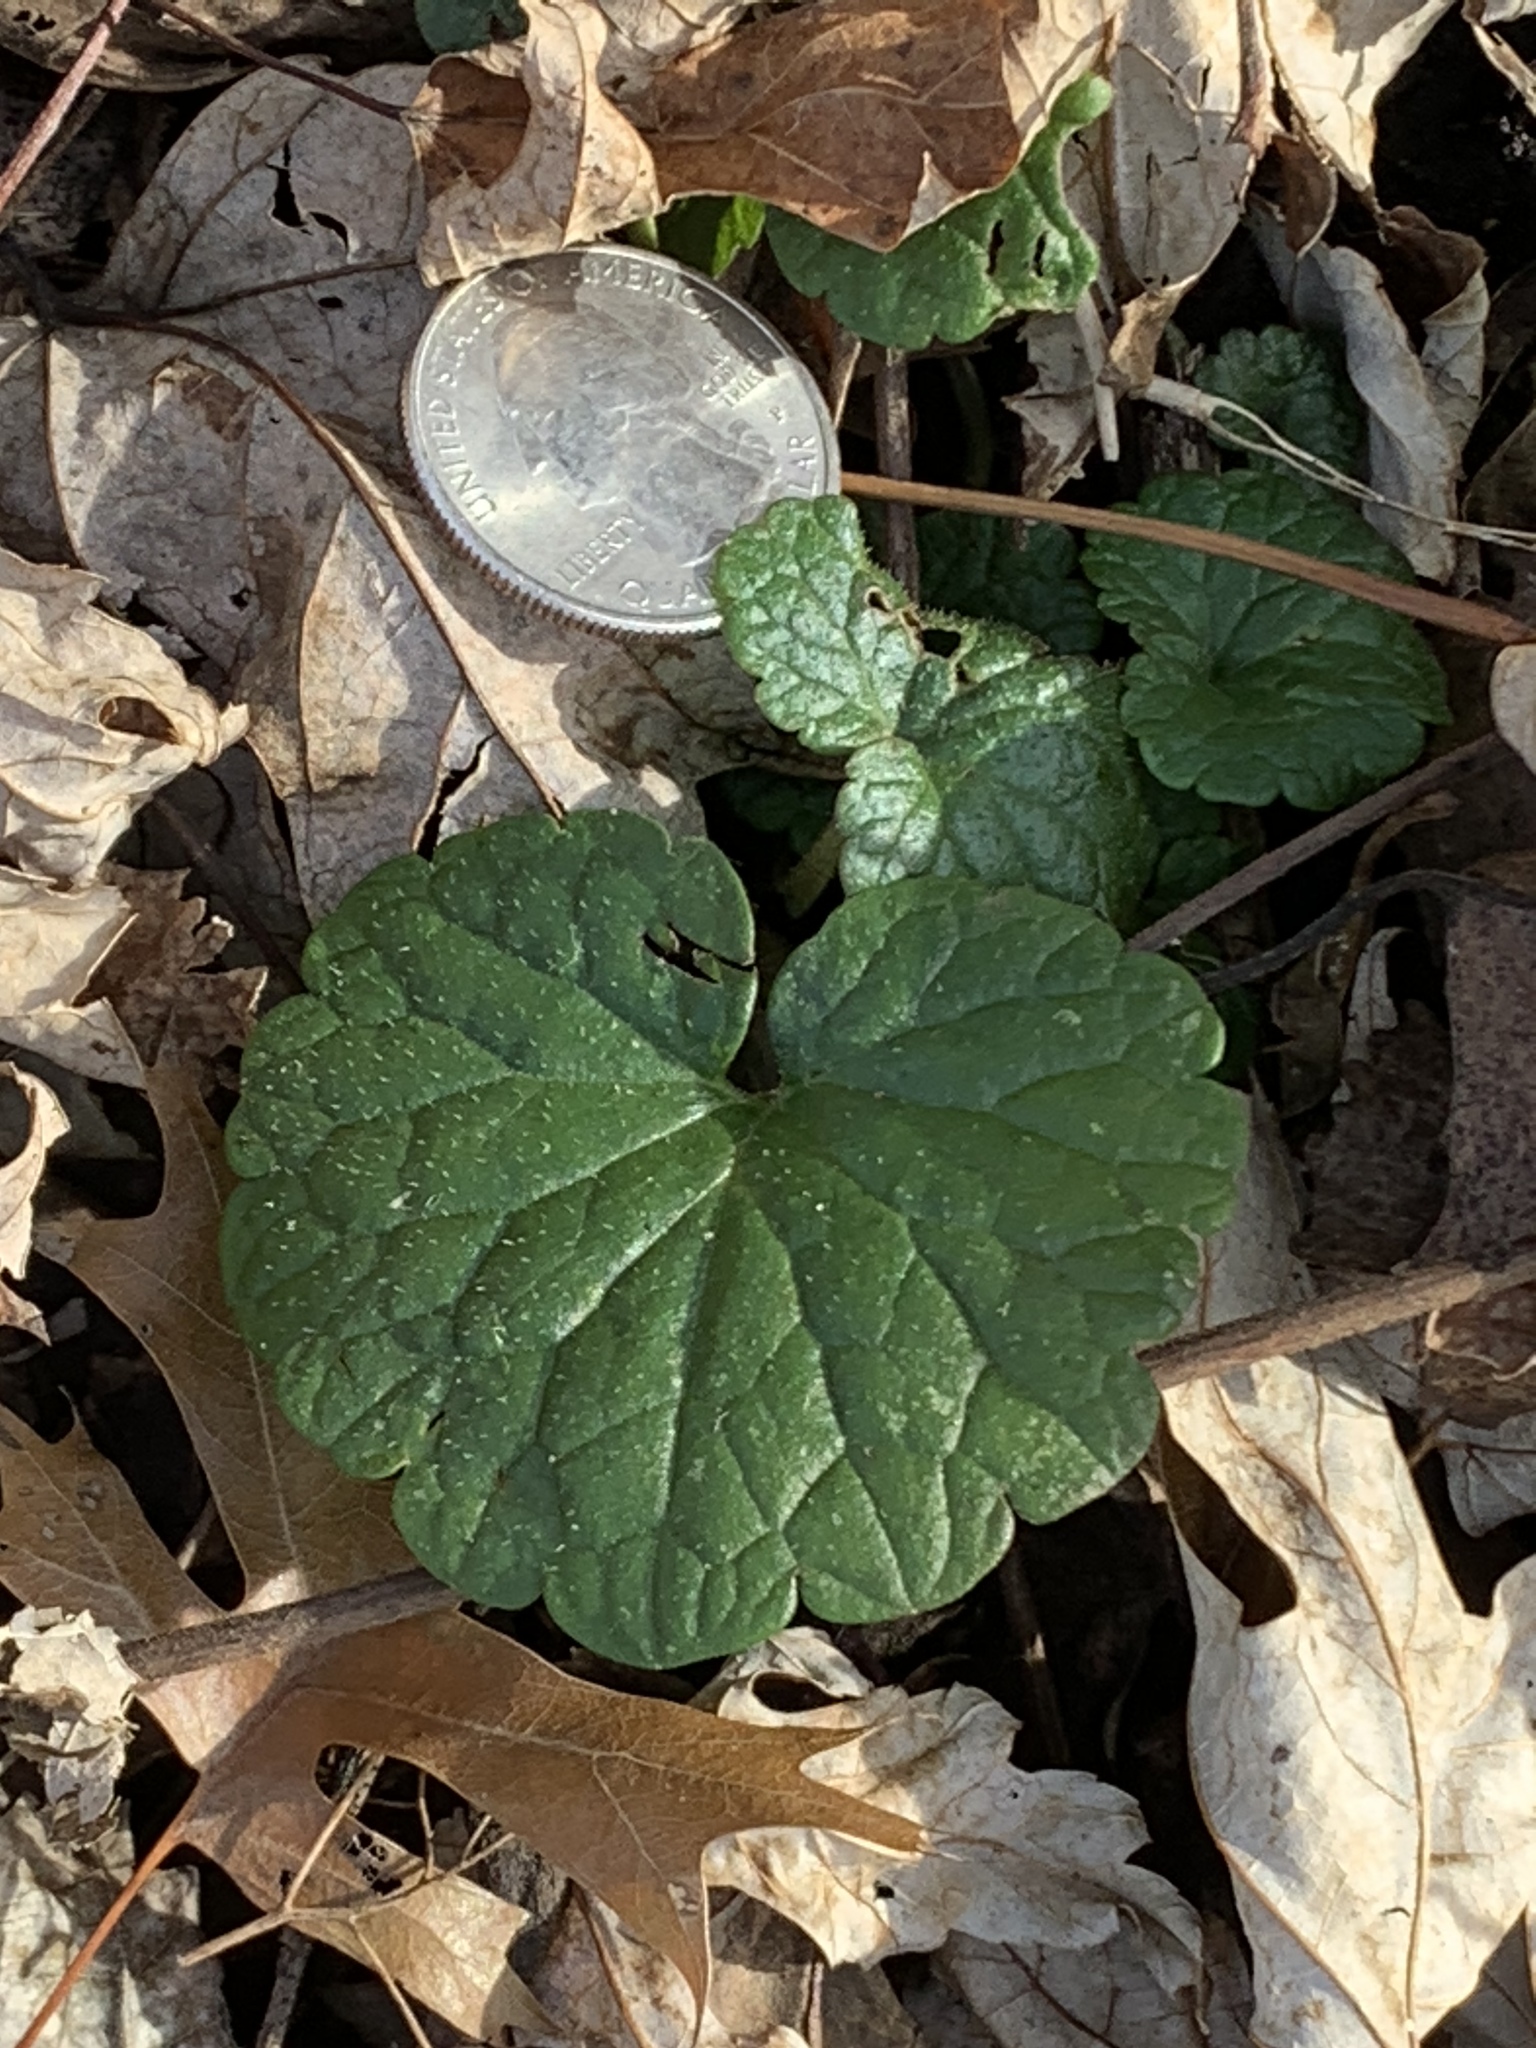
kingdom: Plantae
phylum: Tracheophyta
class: Magnoliopsida
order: Lamiales
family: Lamiaceae
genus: Glechoma
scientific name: Glechoma hederacea
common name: Ground ivy
